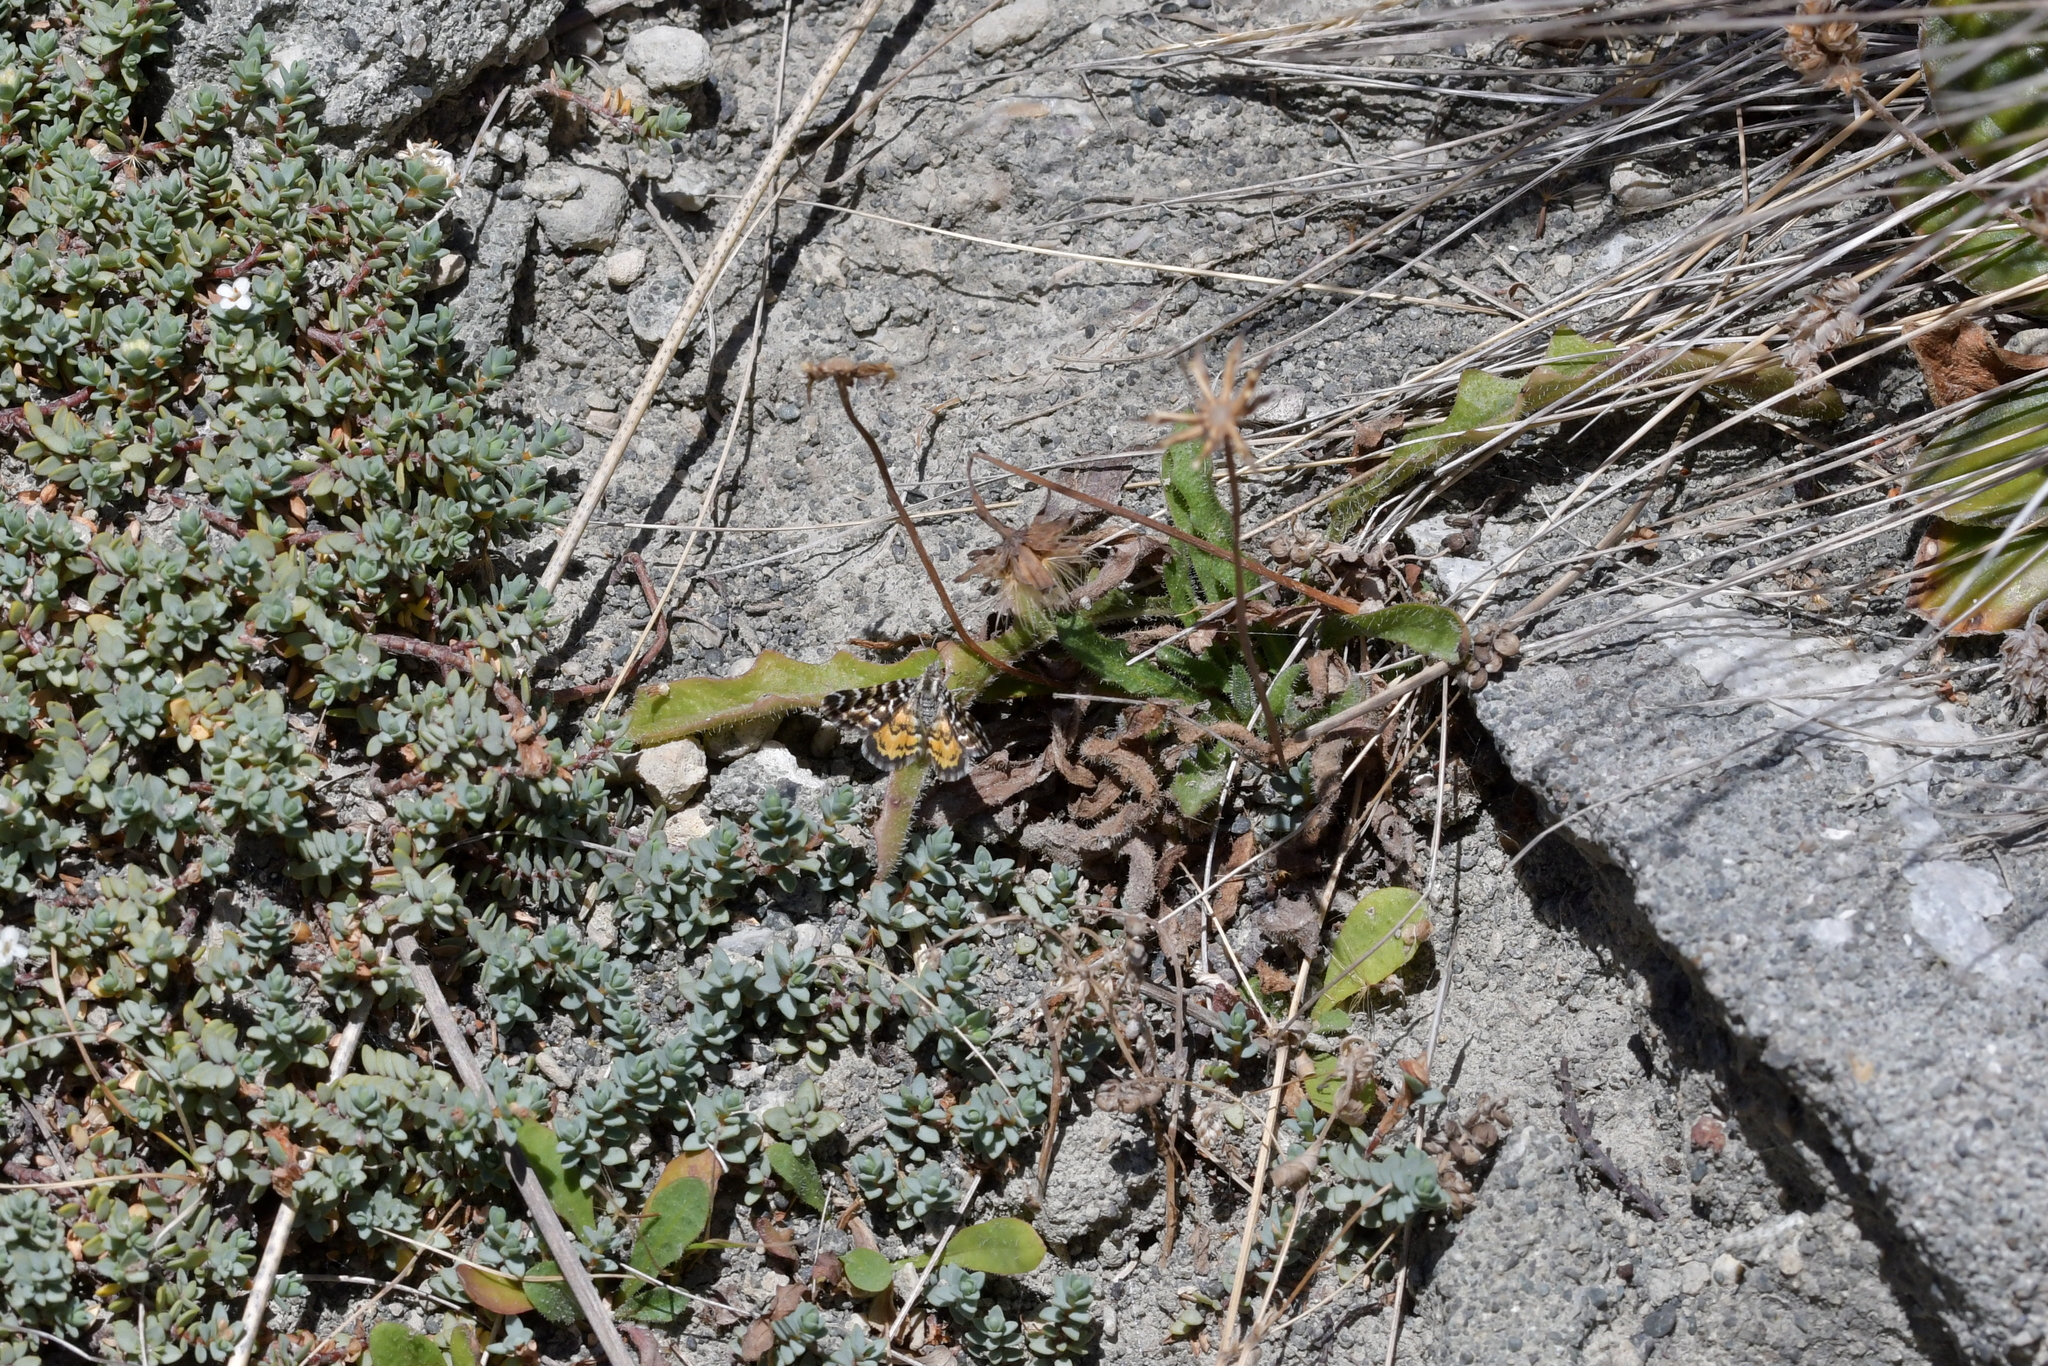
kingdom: Animalia
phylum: Arthropoda
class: Insecta
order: Lepidoptera
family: Geometridae
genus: Notoreas
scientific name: Notoreas perornata
